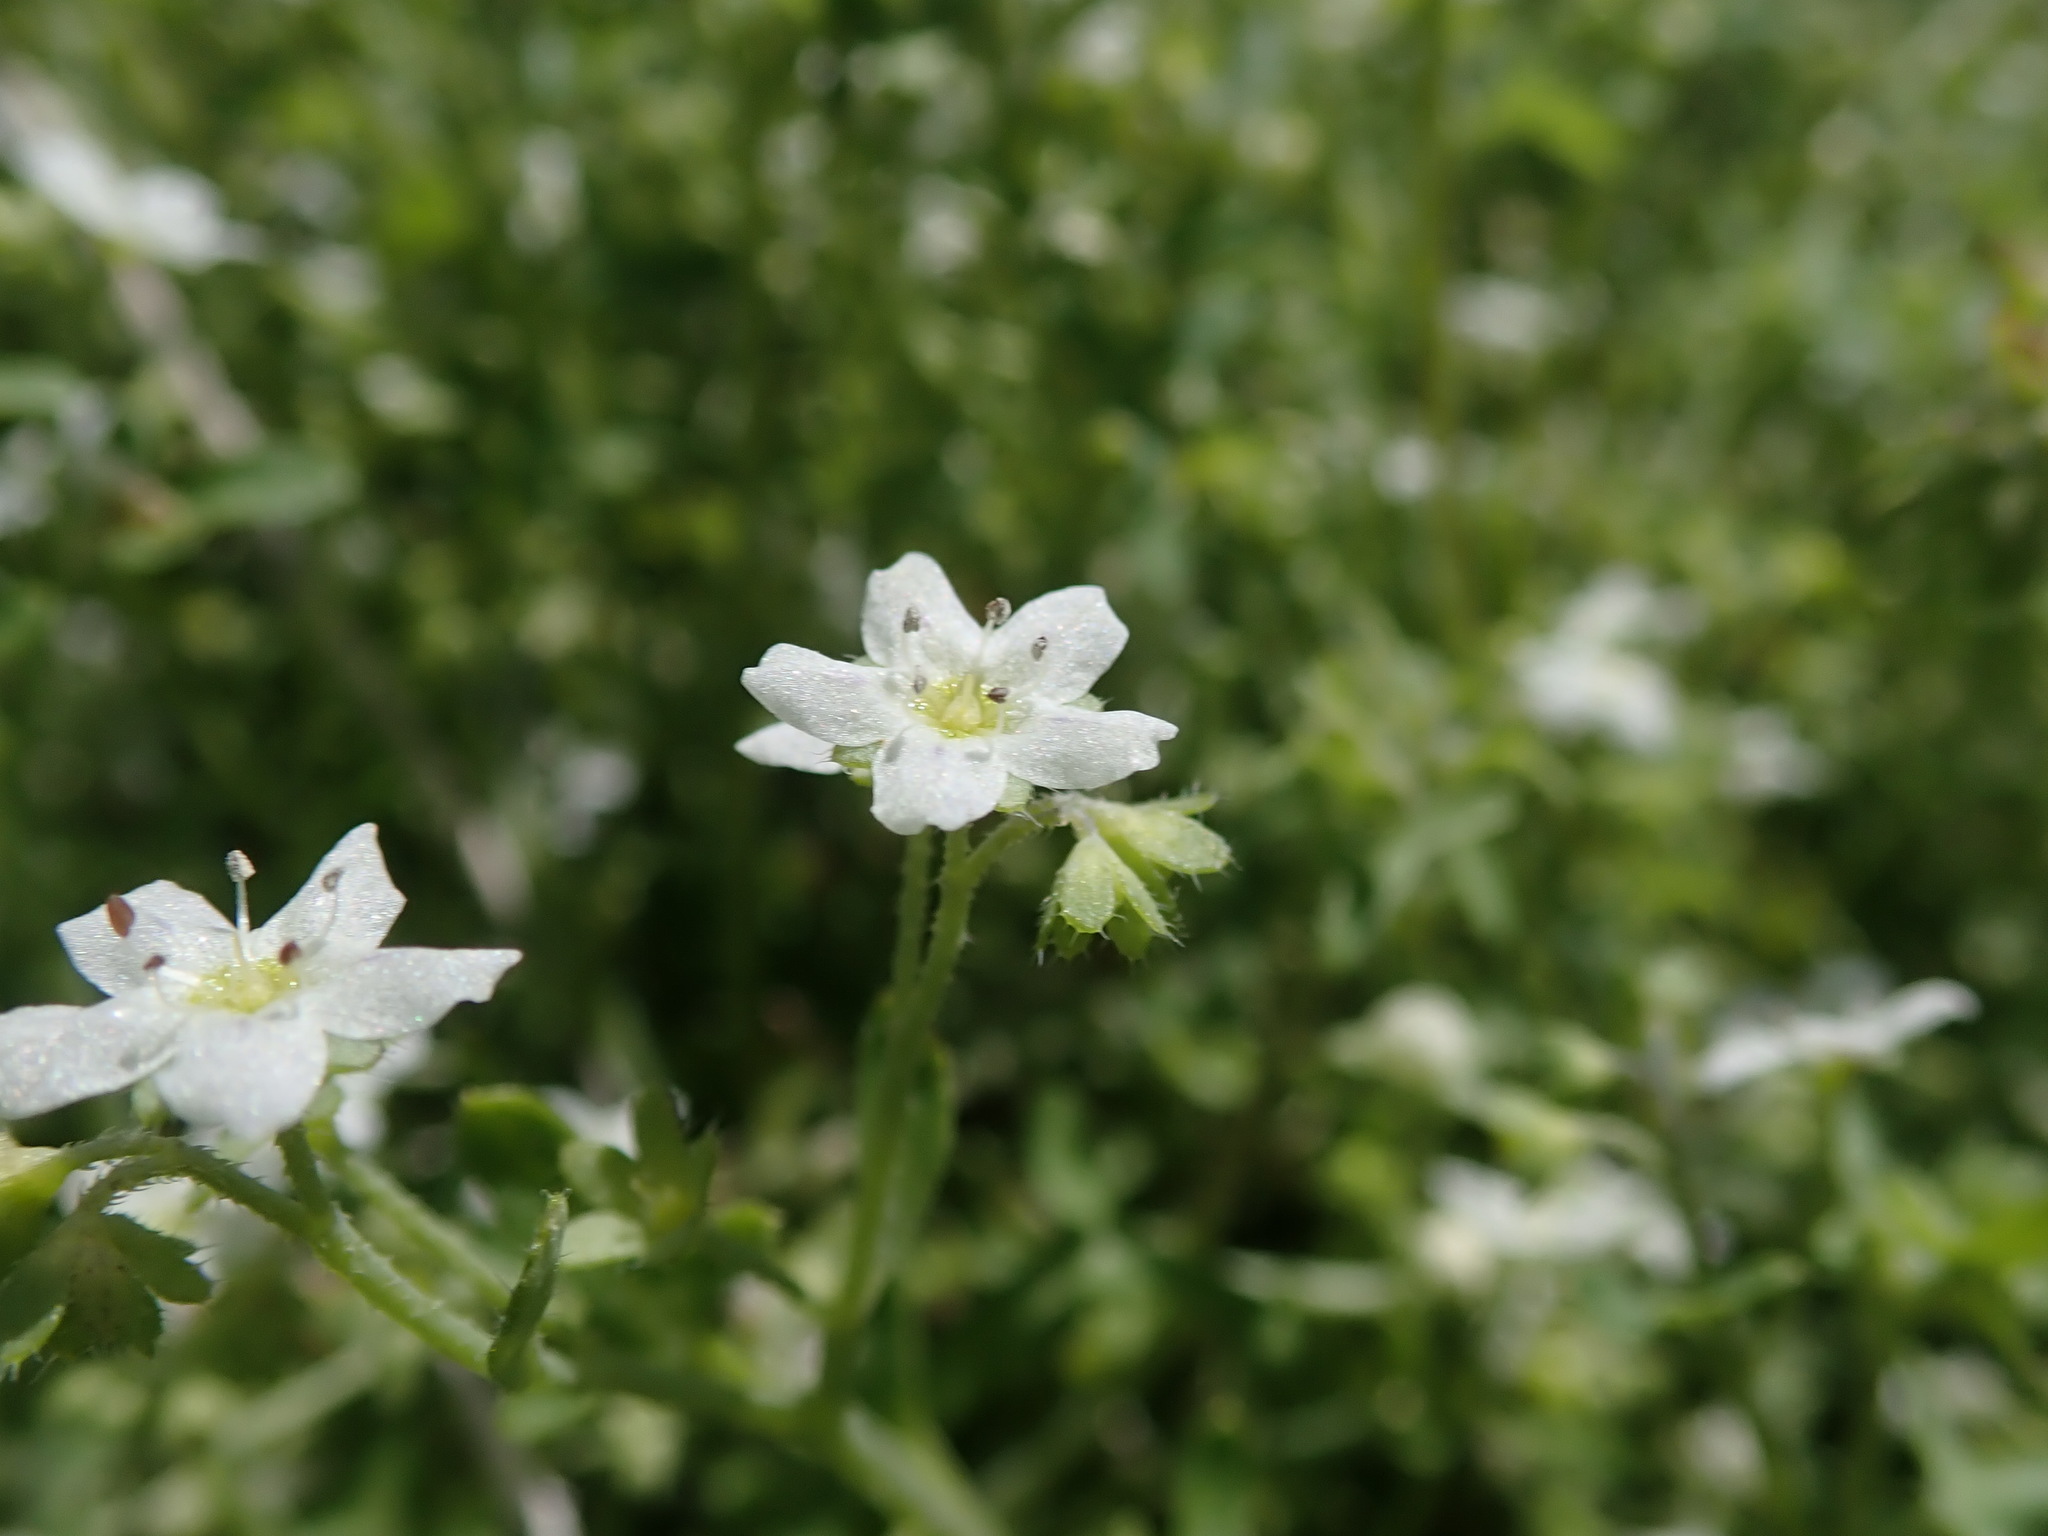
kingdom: Plantae
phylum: Tracheophyta
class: Magnoliopsida
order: Boraginales
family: Hydrophyllaceae
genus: Pholistoma
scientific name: Pholistoma membranaceum
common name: White fiesta-flower
